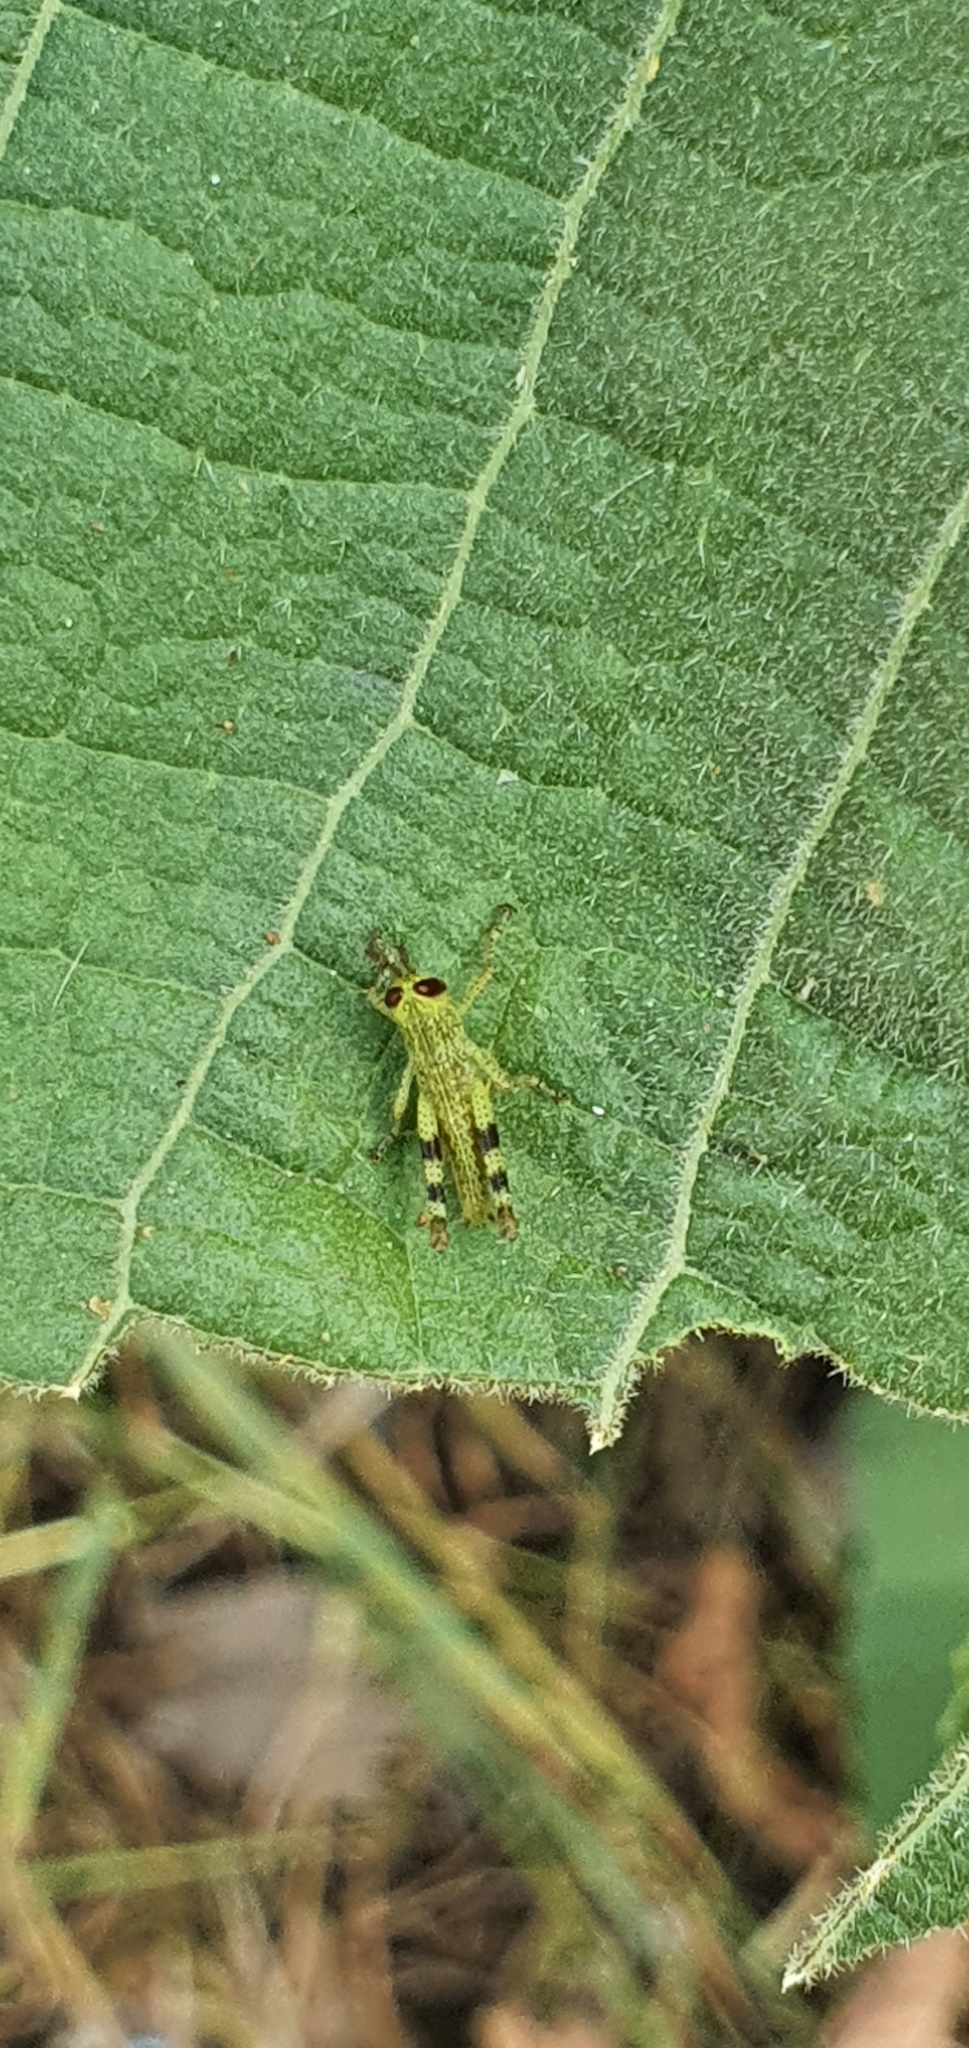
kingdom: Animalia
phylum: Arthropoda
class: Insecta
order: Orthoptera
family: Acrididae
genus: Valanga
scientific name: Valanga irregularis
